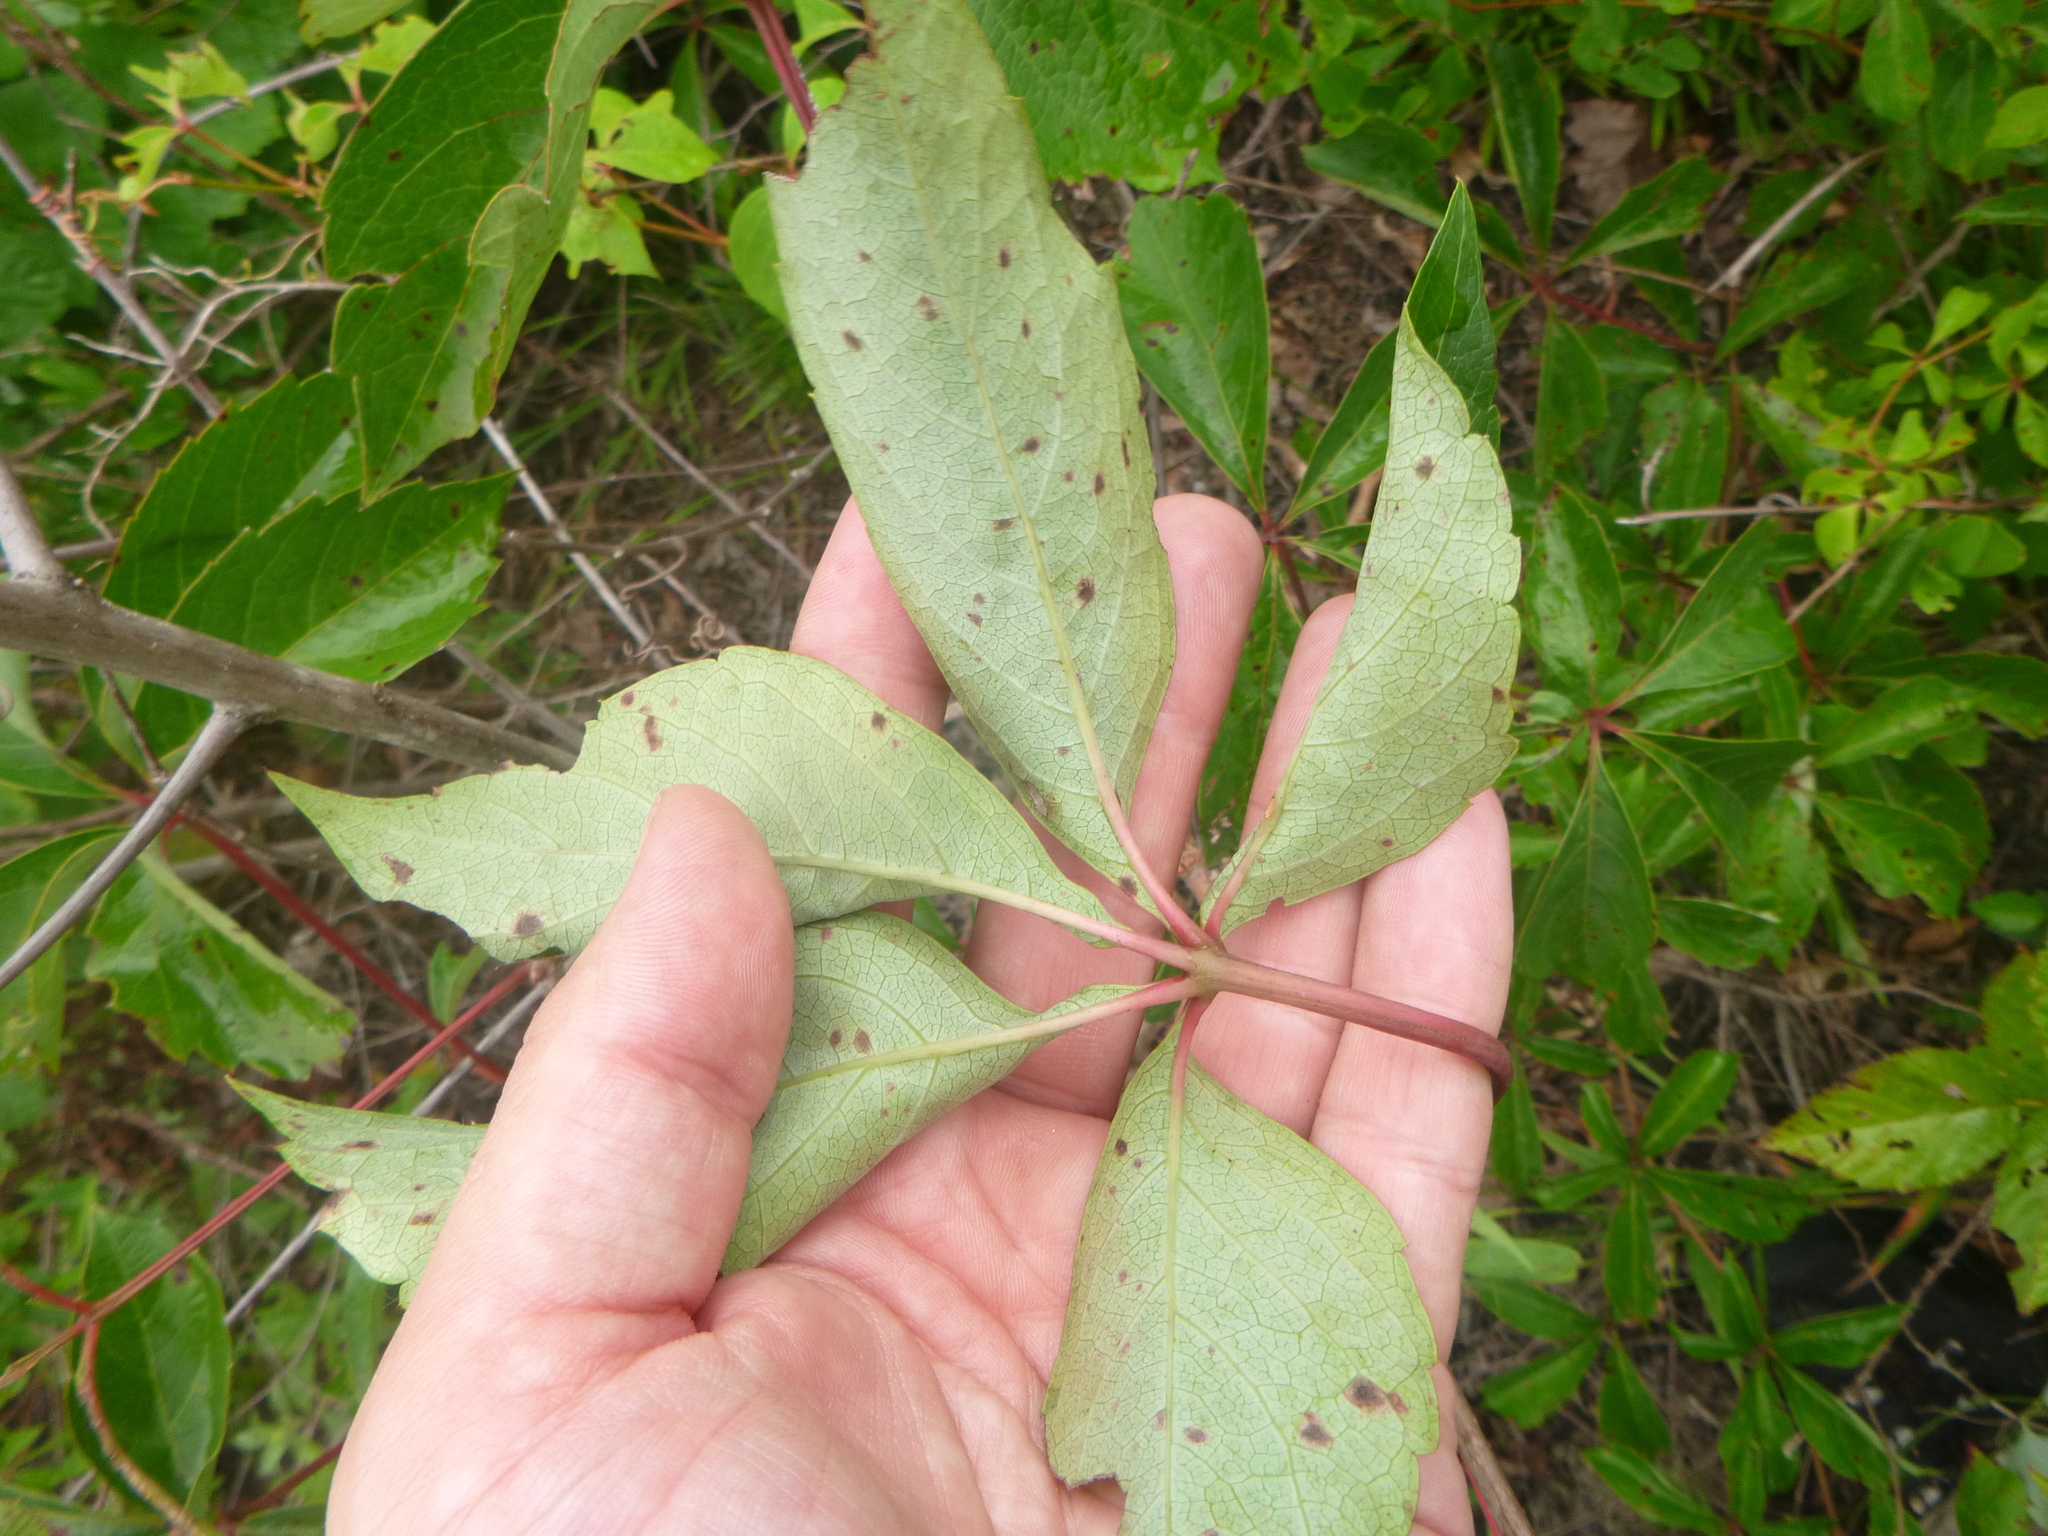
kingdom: Plantae
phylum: Tracheophyta
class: Magnoliopsida
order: Vitales
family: Vitaceae
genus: Parthenocissus
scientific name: Parthenocissus quinquefolia
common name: Virginia-creeper
